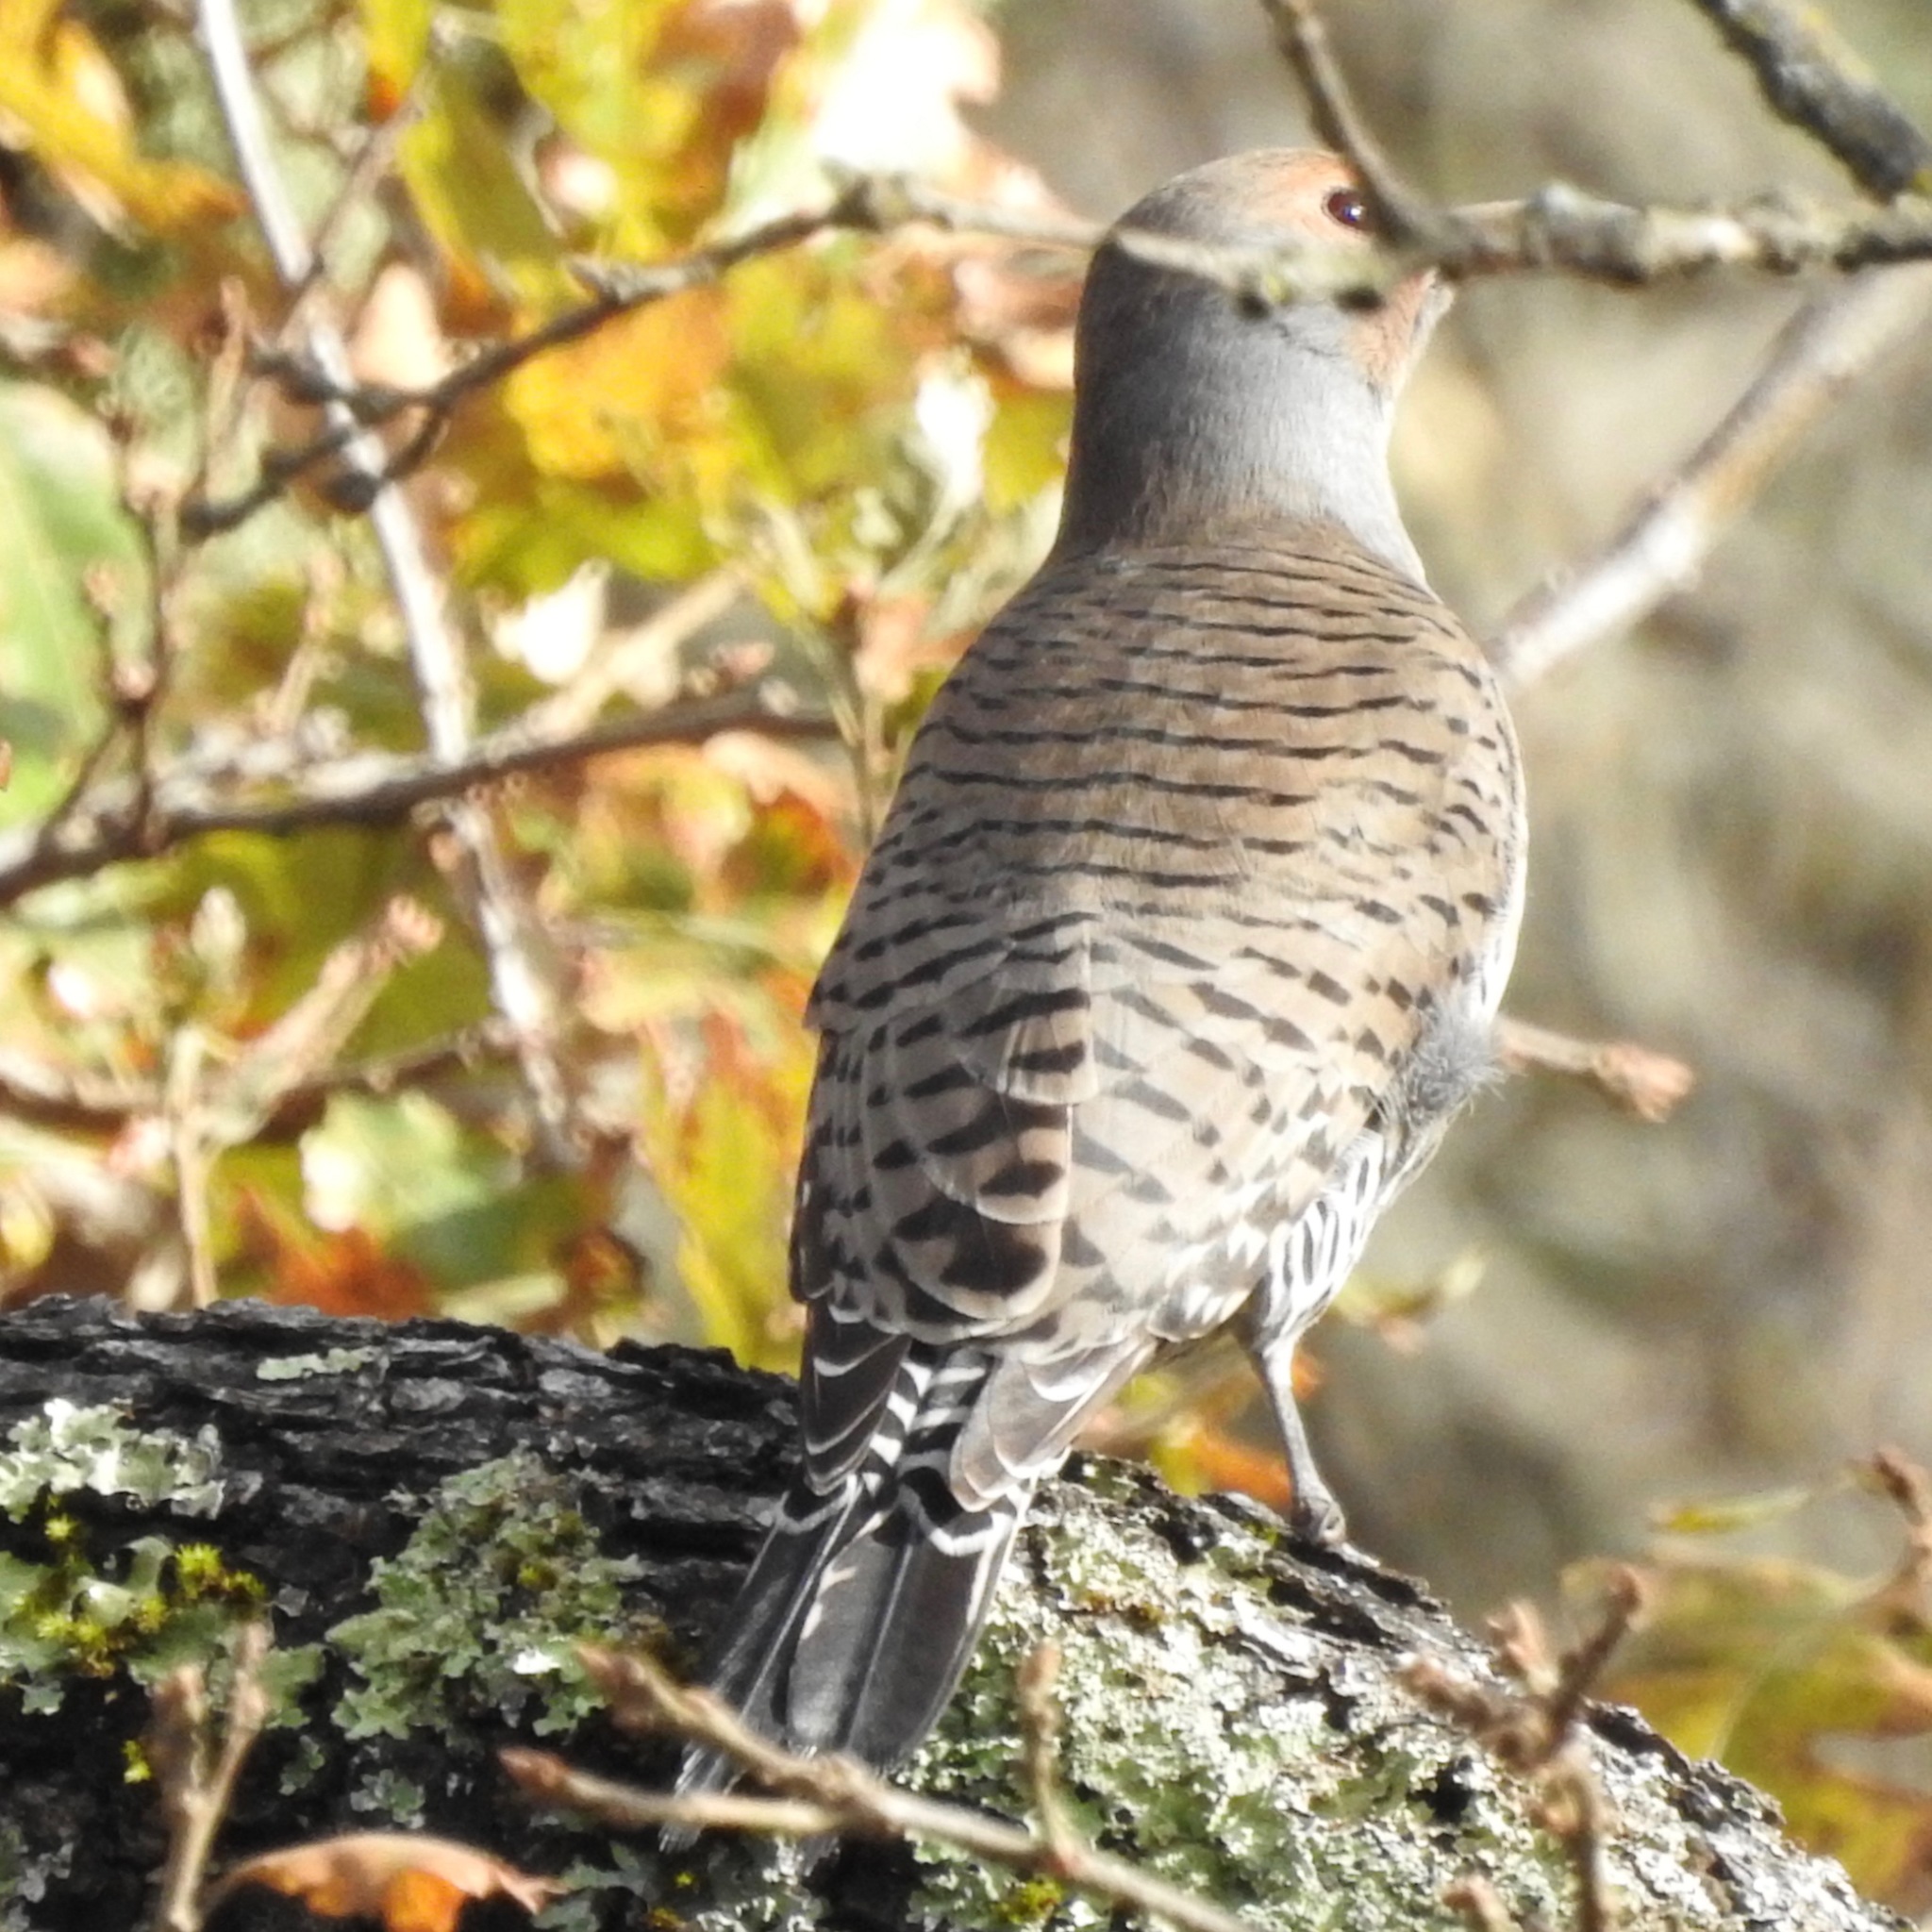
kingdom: Animalia
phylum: Chordata
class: Aves
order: Piciformes
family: Picidae
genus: Colaptes
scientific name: Colaptes auratus
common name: Northern flicker
